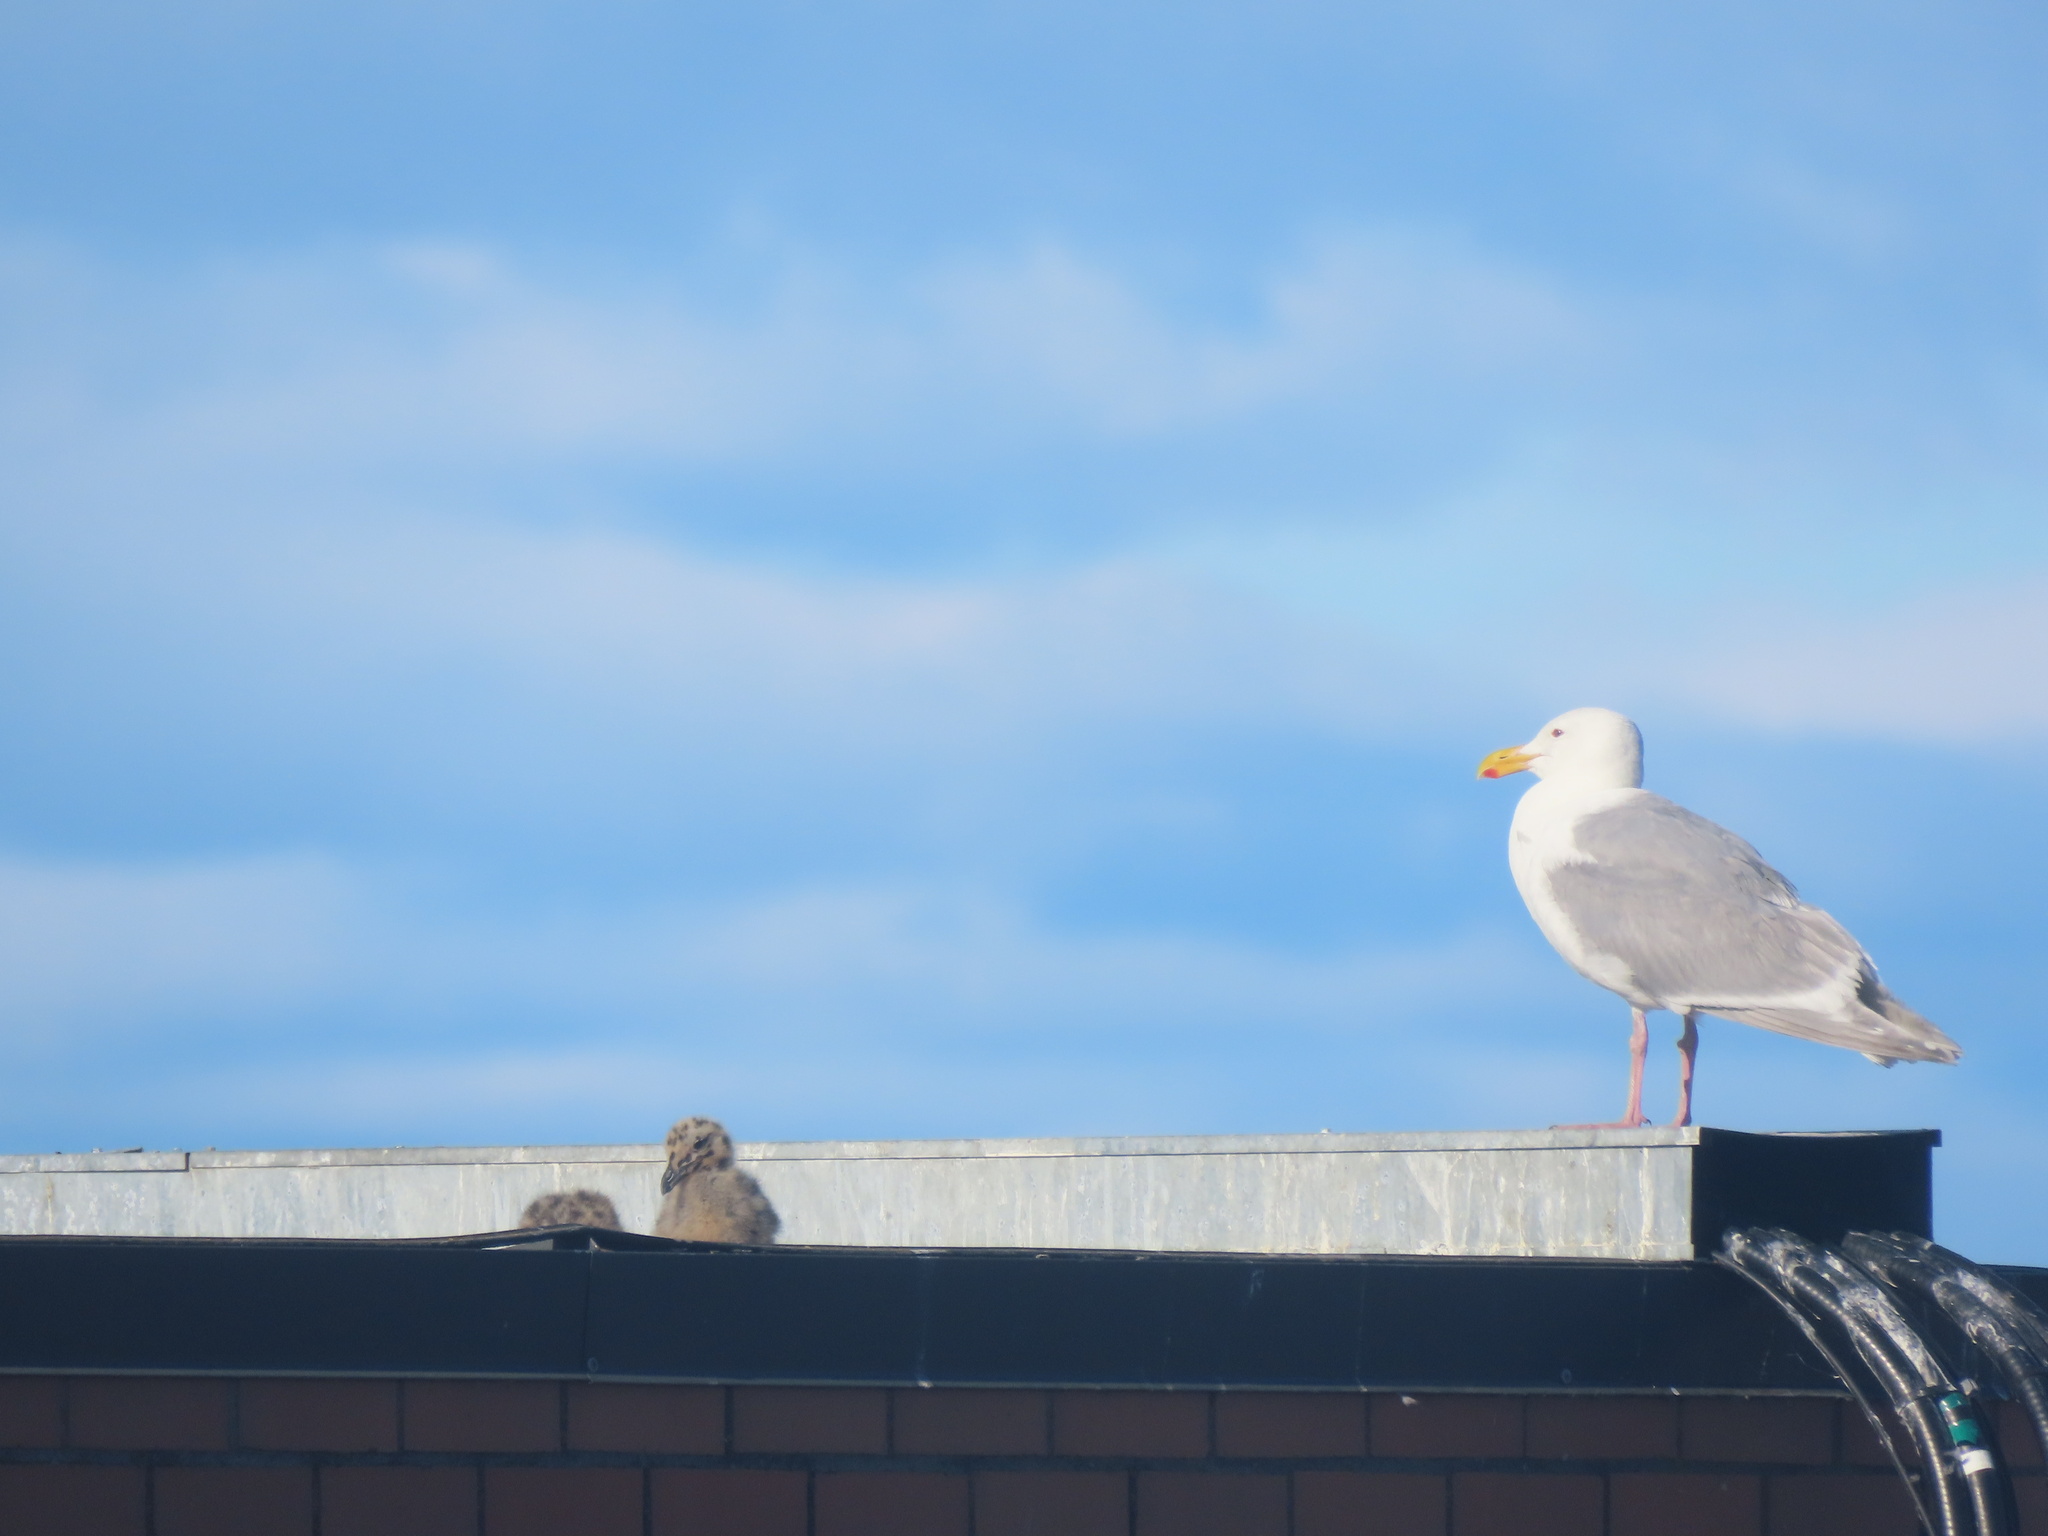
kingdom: Animalia
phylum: Chordata
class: Aves
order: Charadriiformes
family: Laridae
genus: Larus
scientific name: Larus glaucescens
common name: Glaucous-winged gull
